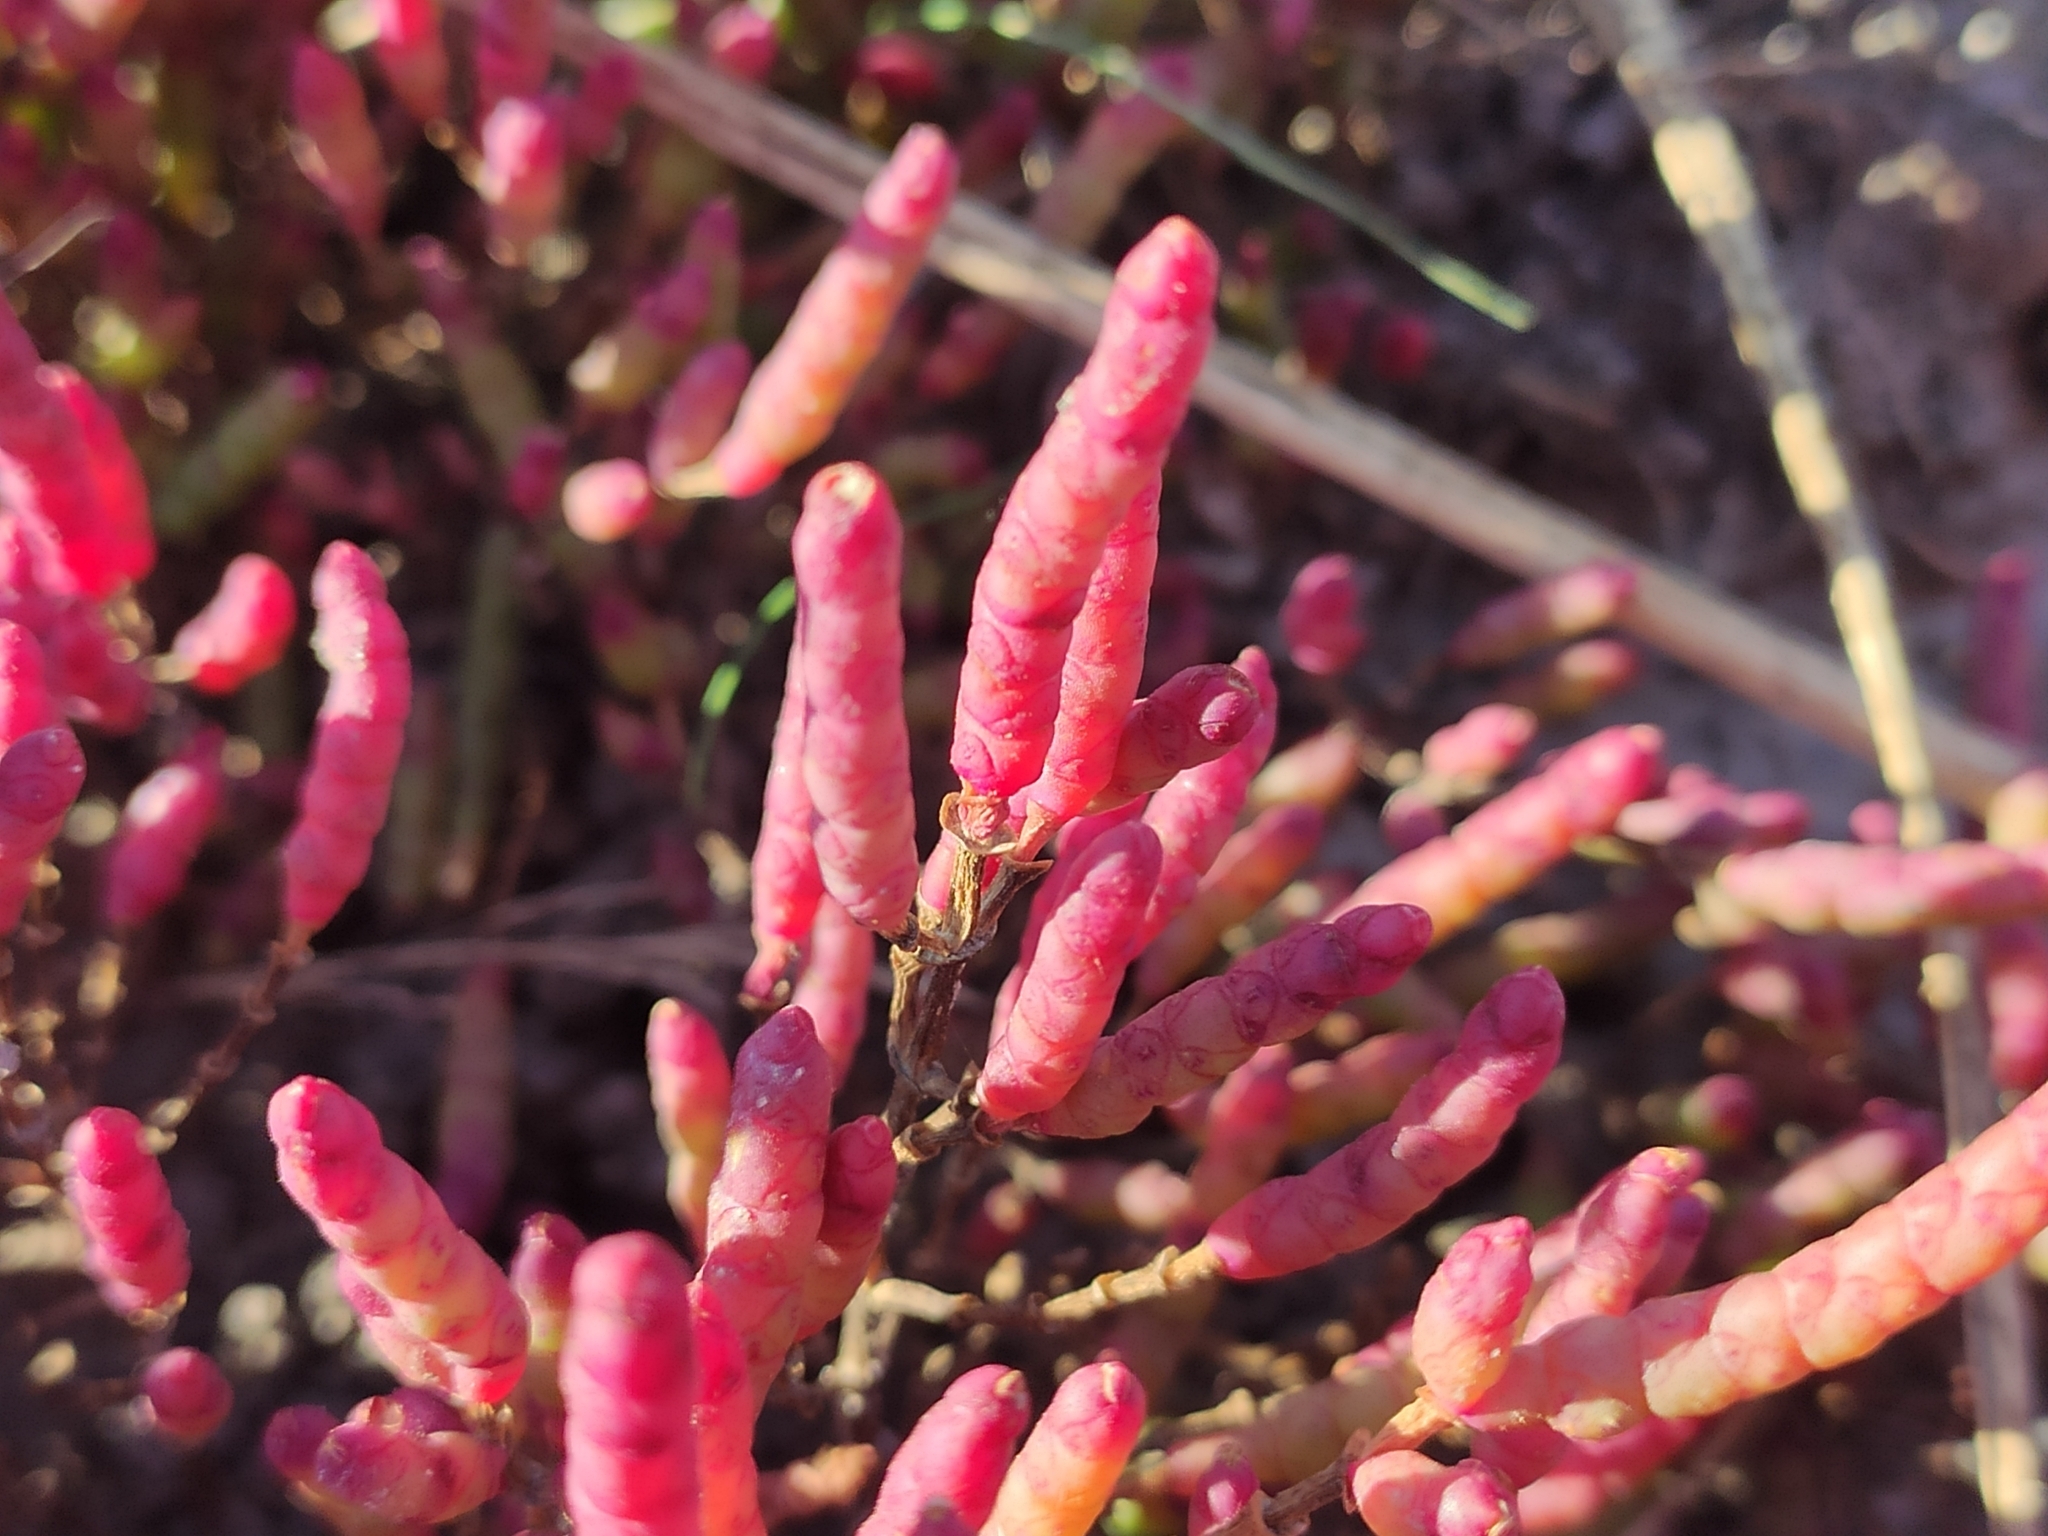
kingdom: Plantae
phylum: Tracheophyta
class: Magnoliopsida
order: Caryophyllales
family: Amaranthaceae
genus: Salicornia
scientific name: Salicornia perennans
